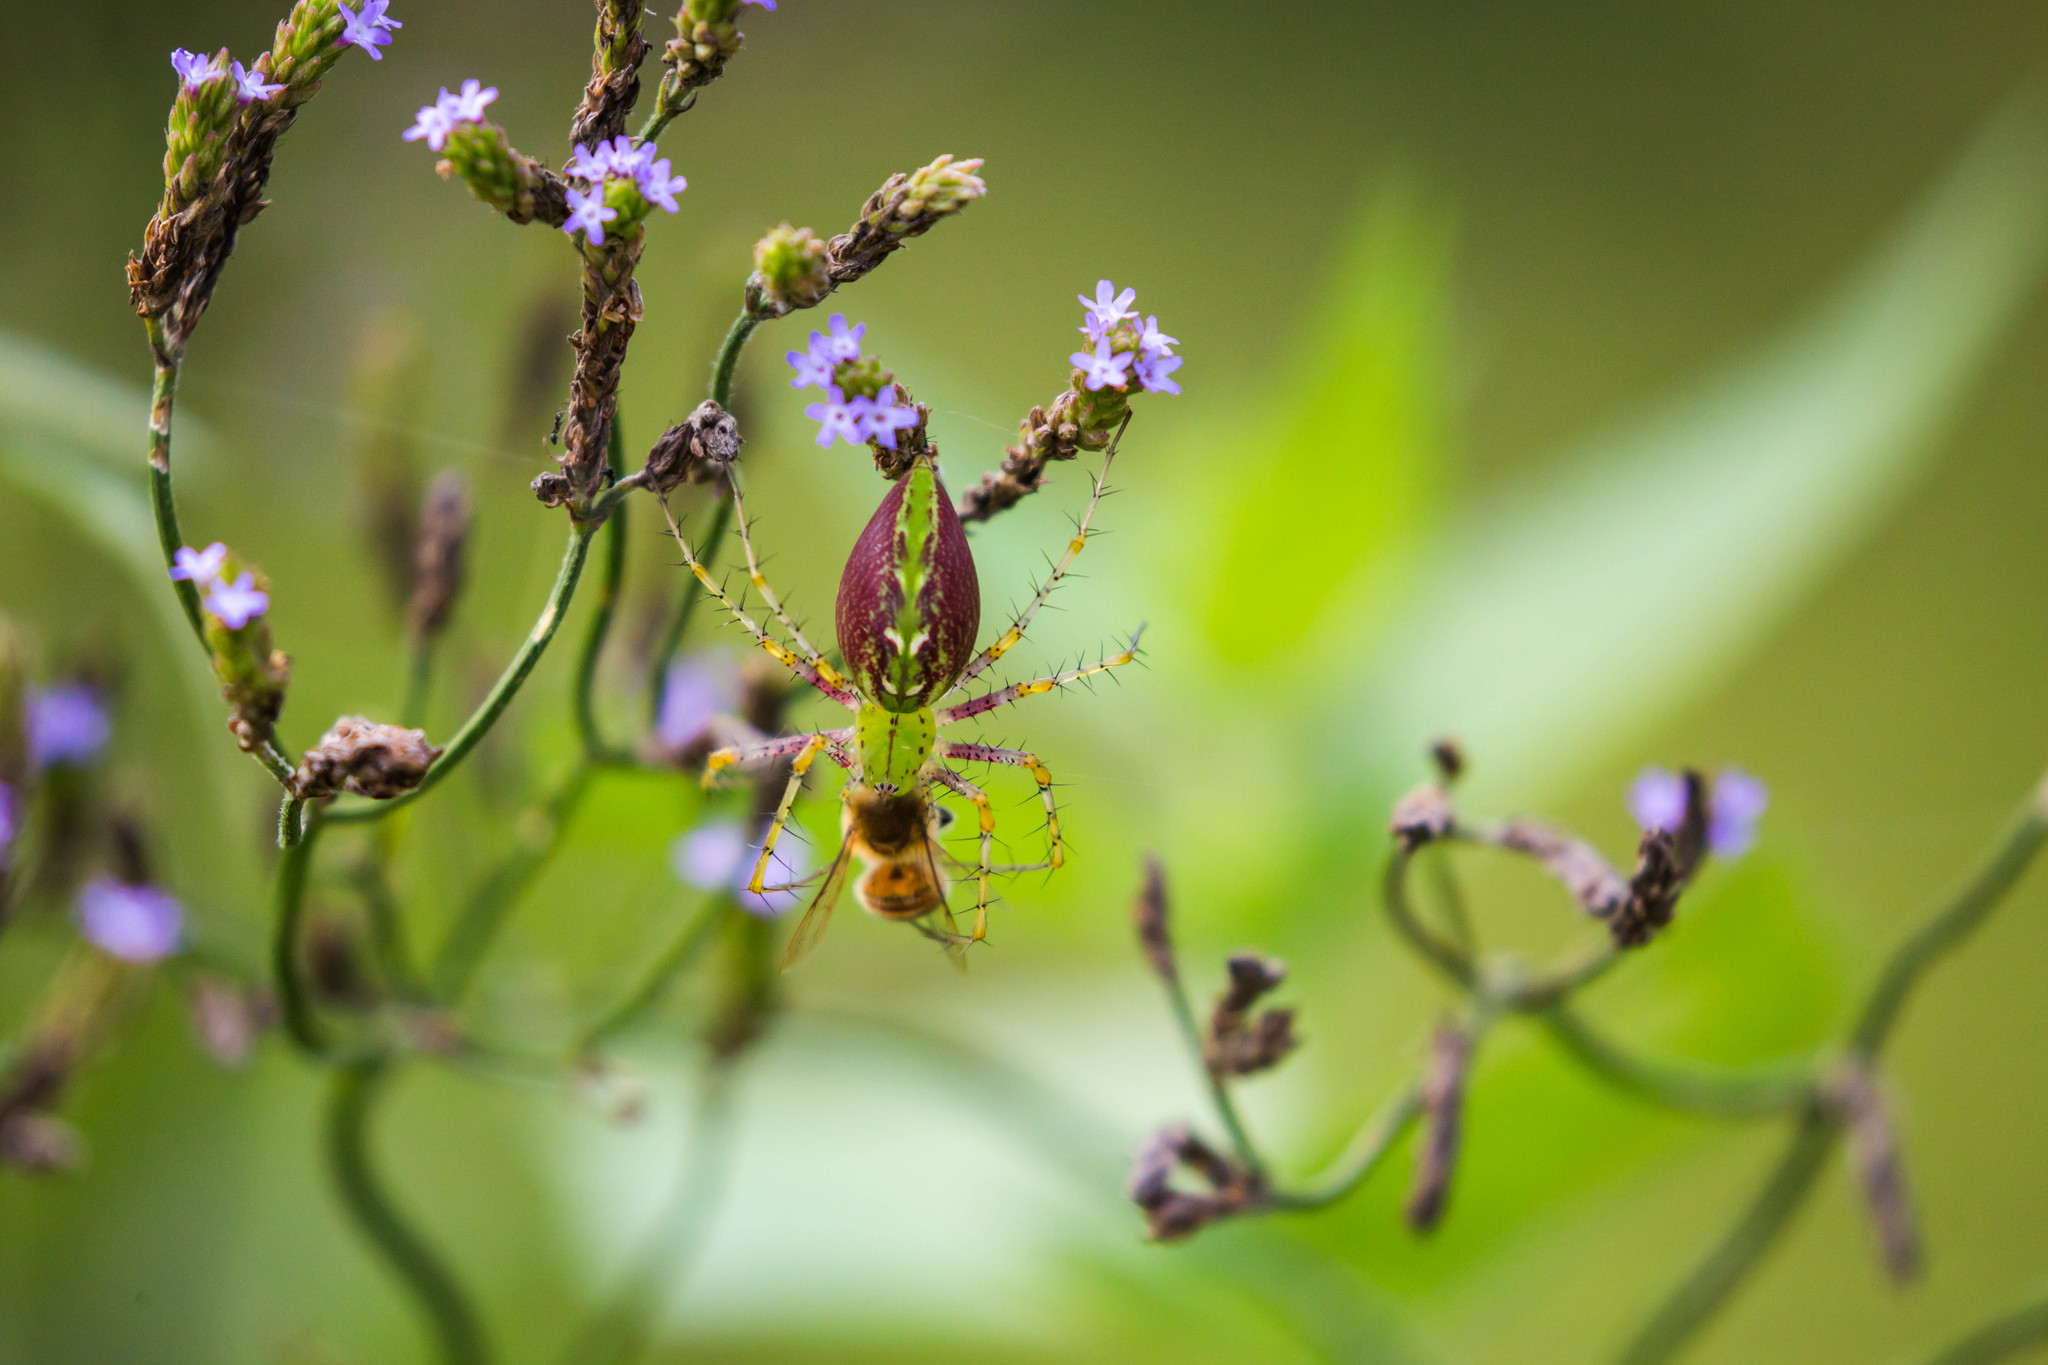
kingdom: Animalia
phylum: Arthropoda
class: Arachnida
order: Araneae
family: Oxyopidae
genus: Peucetia
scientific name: Peucetia viridans
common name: Lynx spiders
